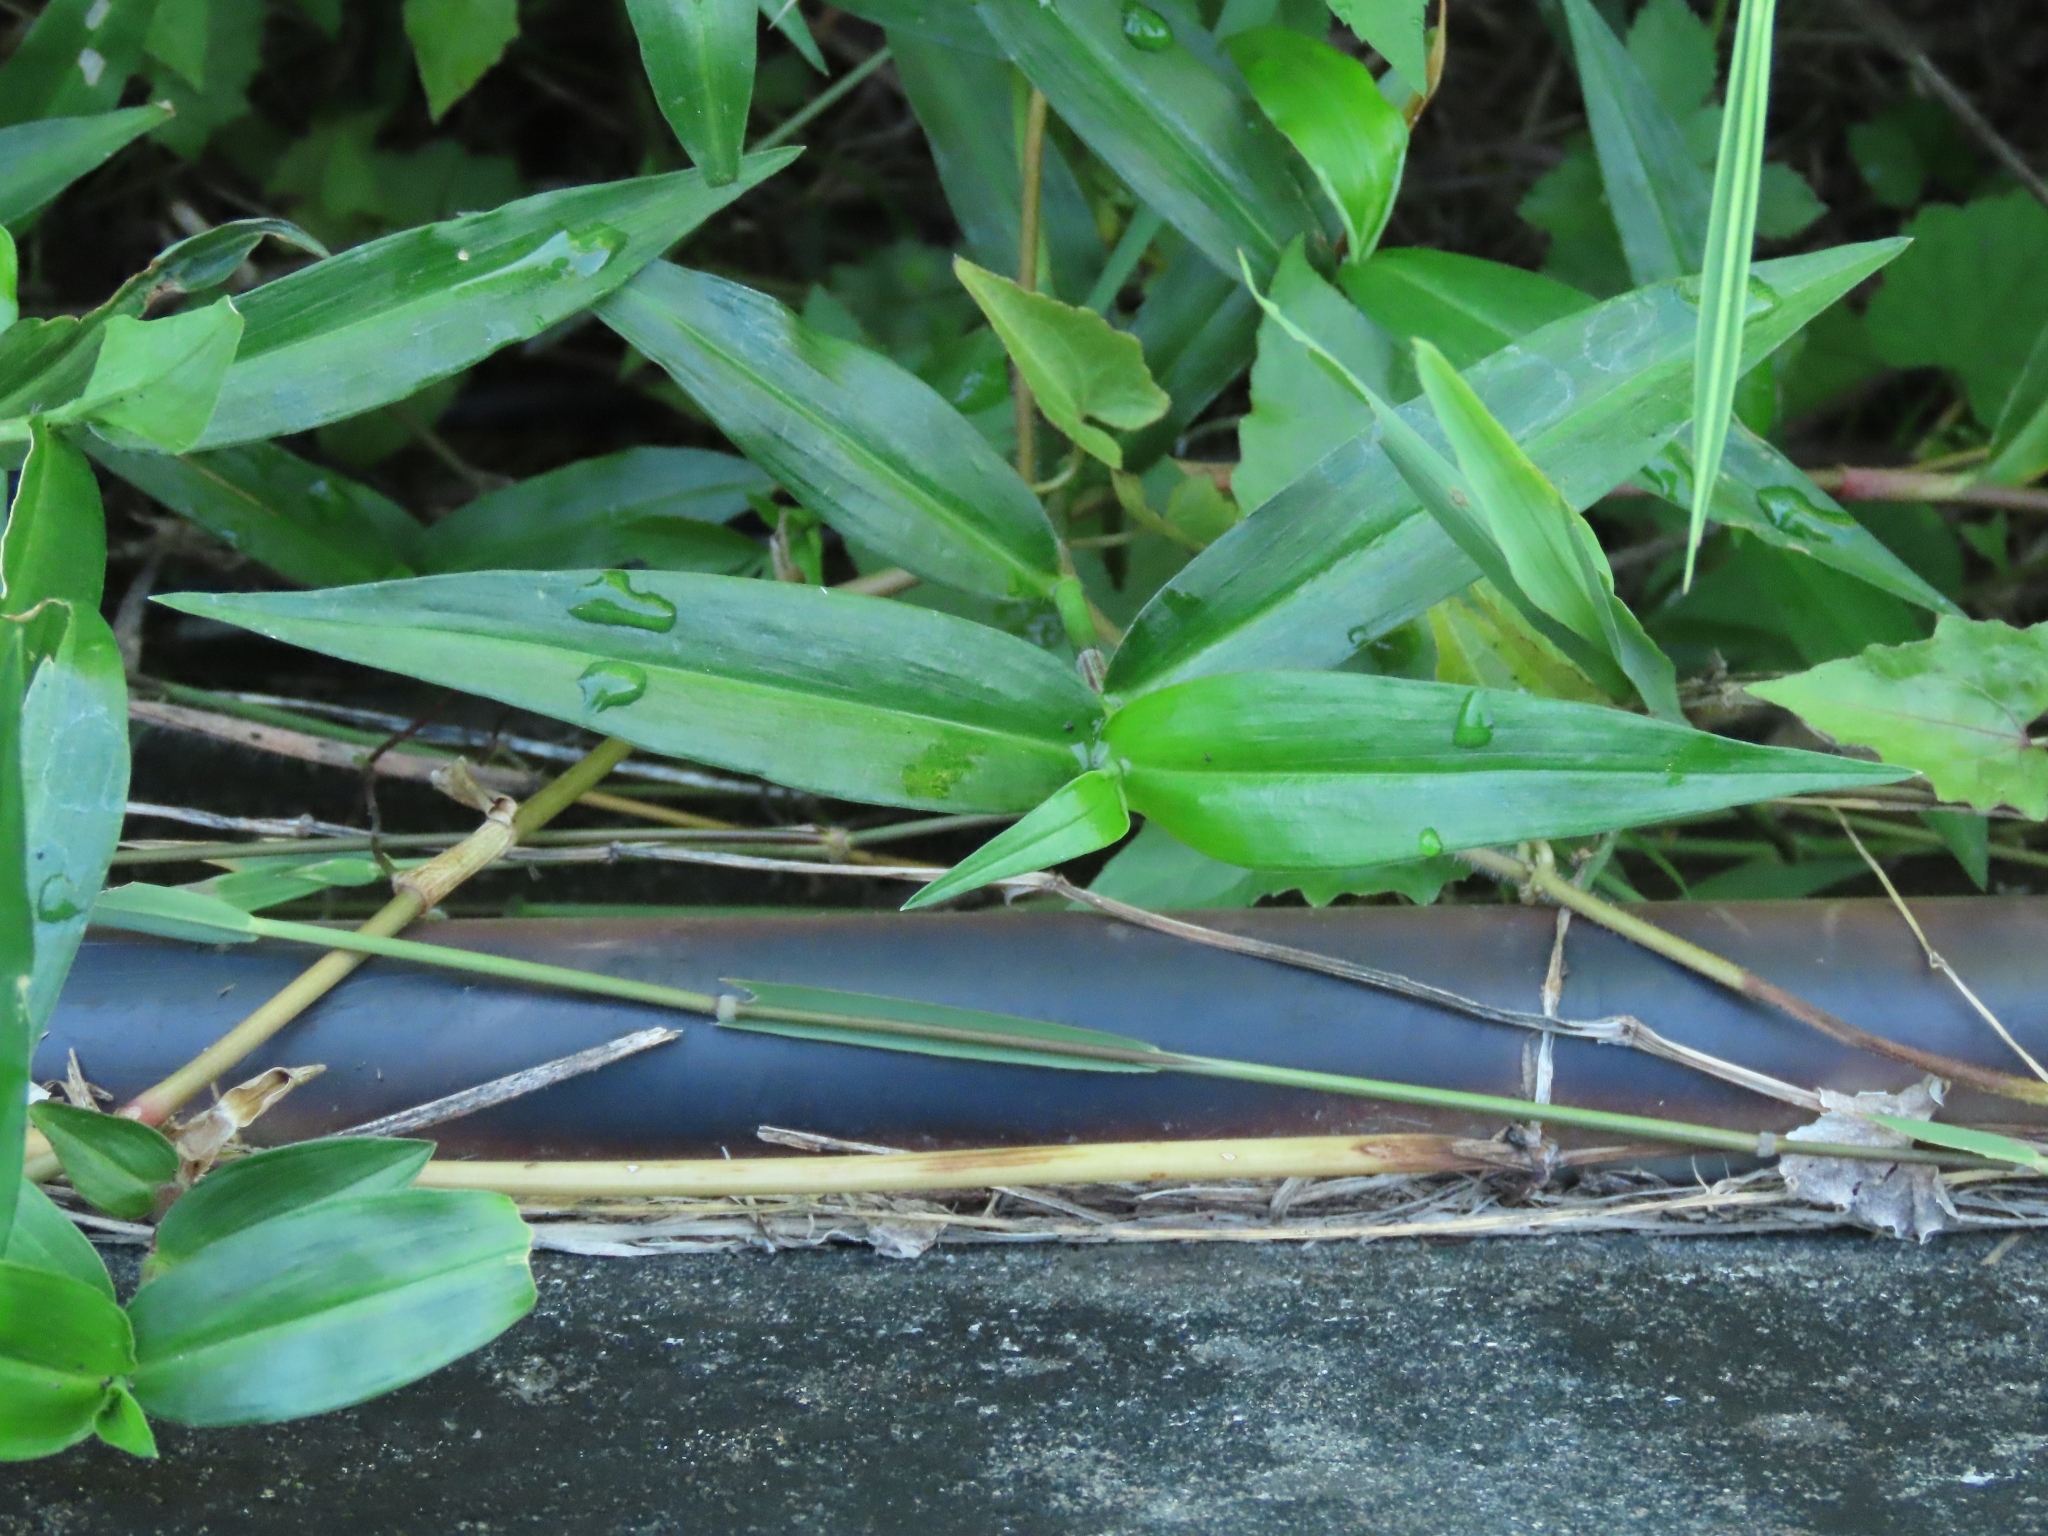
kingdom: Plantae
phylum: Tracheophyta
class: Magnoliopsida
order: Caryophyllales
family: Polygonaceae
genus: Persicaria
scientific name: Persicaria barbata
